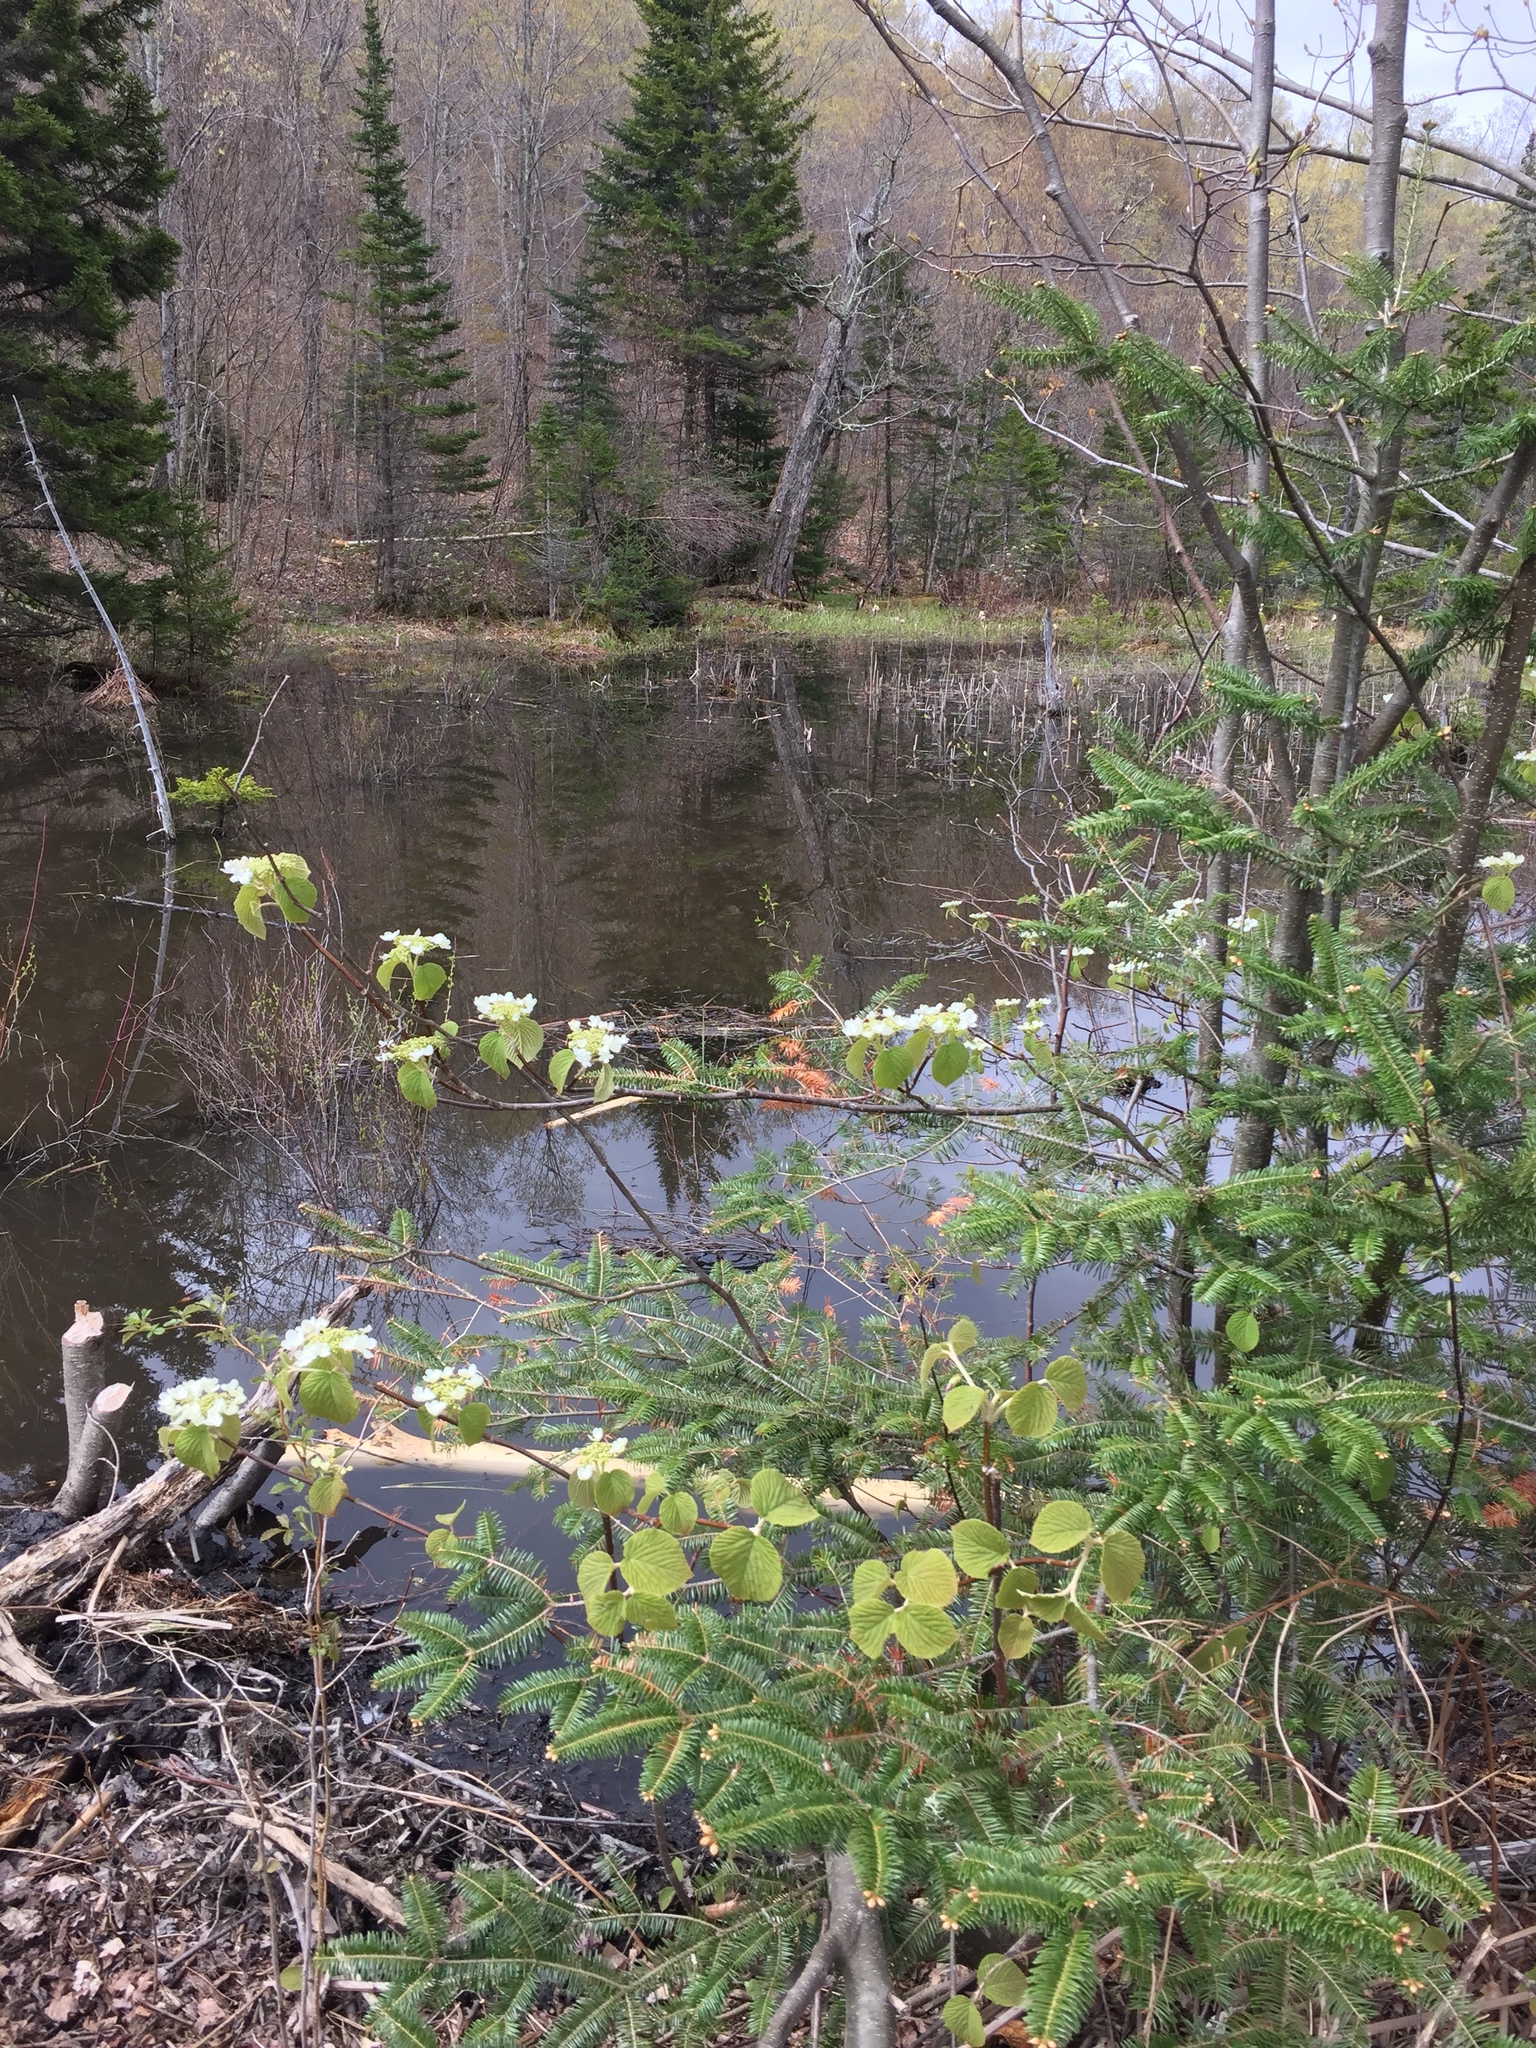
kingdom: Plantae
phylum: Tracheophyta
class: Magnoliopsida
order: Dipsacales
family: Viburnaceae
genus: Viburnum
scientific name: Viburnum lantanoides
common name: Hobblebush
